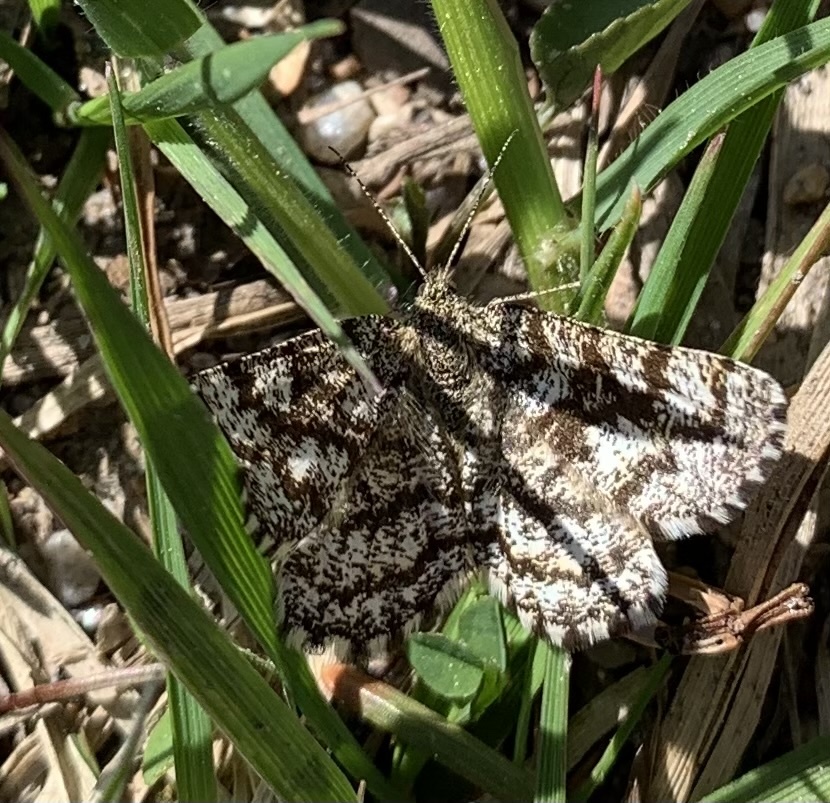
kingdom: Animalia
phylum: Arthropoda
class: Insecta
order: Lepidoptera
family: Geometridae
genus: Ematurga
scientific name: Ematurga atomaria
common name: Common heath
